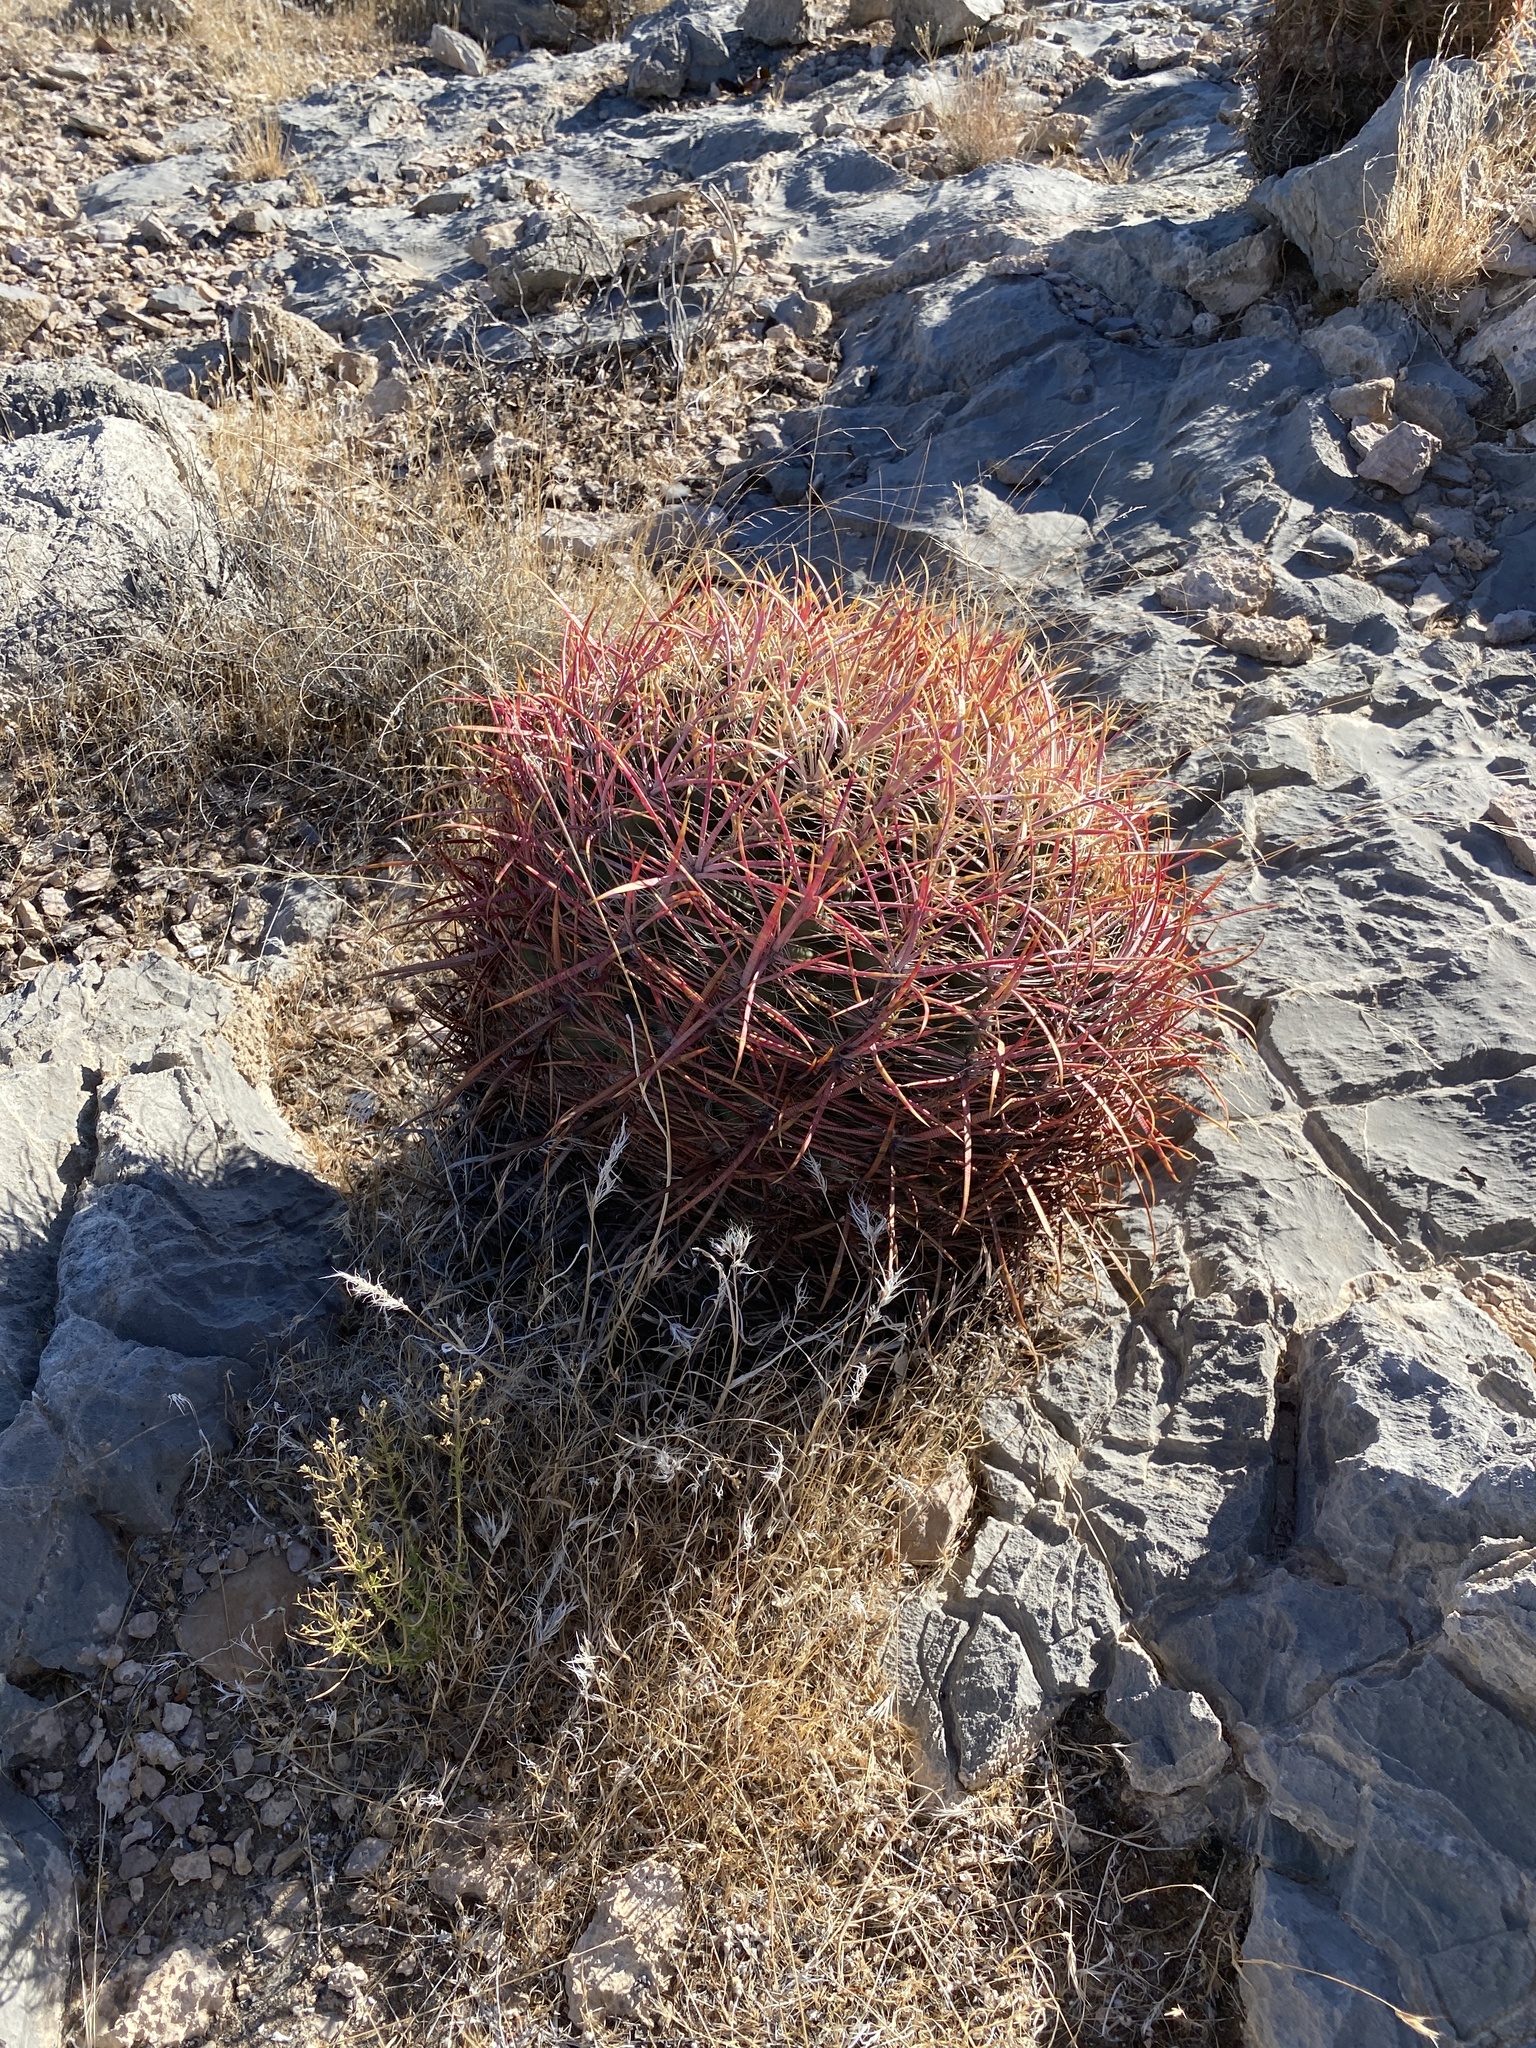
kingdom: Plantae
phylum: Tracheophyta
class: Magnoliopsida
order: Caryophyllales
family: Cactaceae
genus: Ferocactus
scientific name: Ferocactus cylindraceus
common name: California barrel cactus
